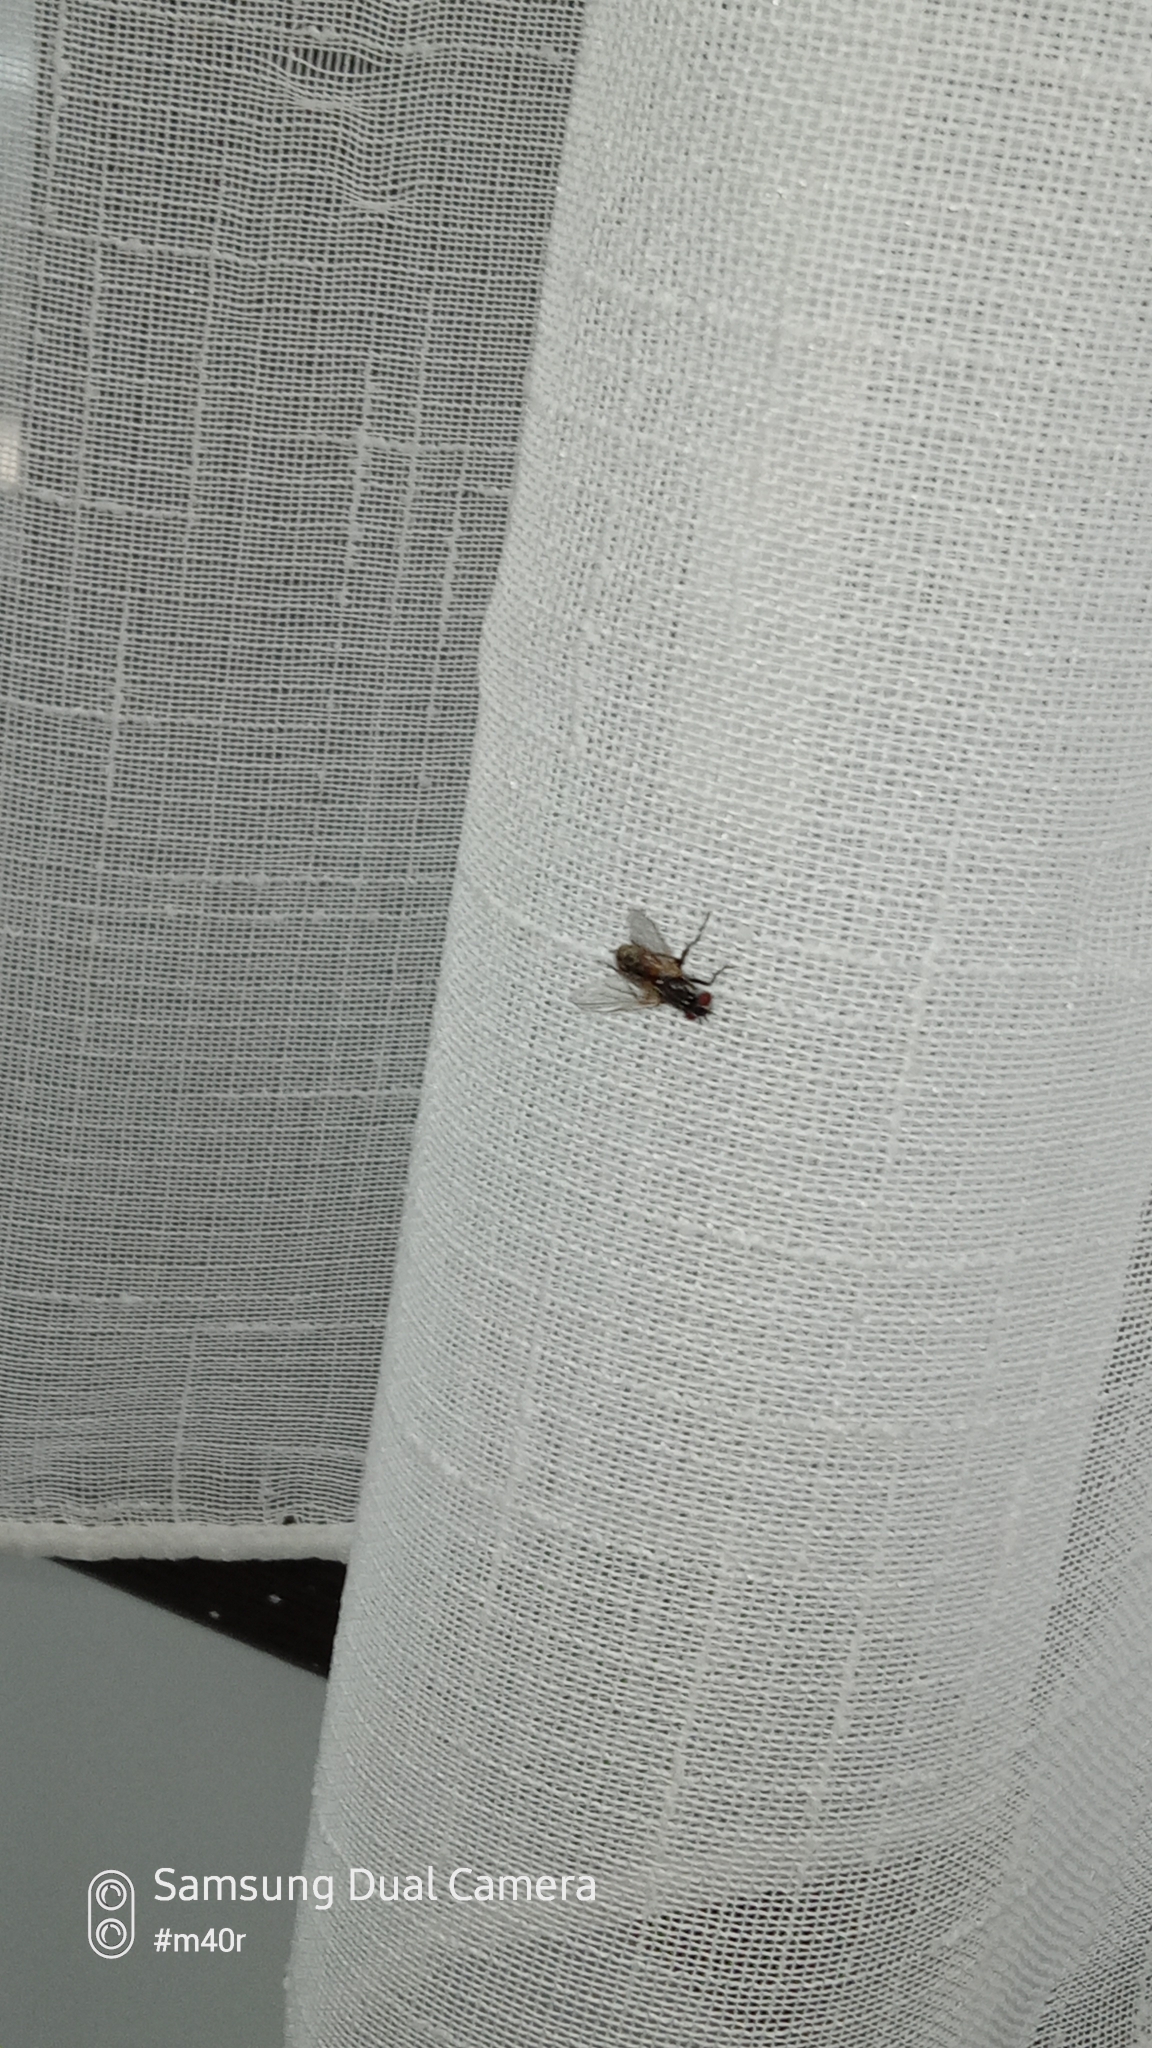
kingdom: Animalia
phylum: Arthropoda
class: Insecta
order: Diptera
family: Muscidae
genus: Musca
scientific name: Musca domestica
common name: House fly
